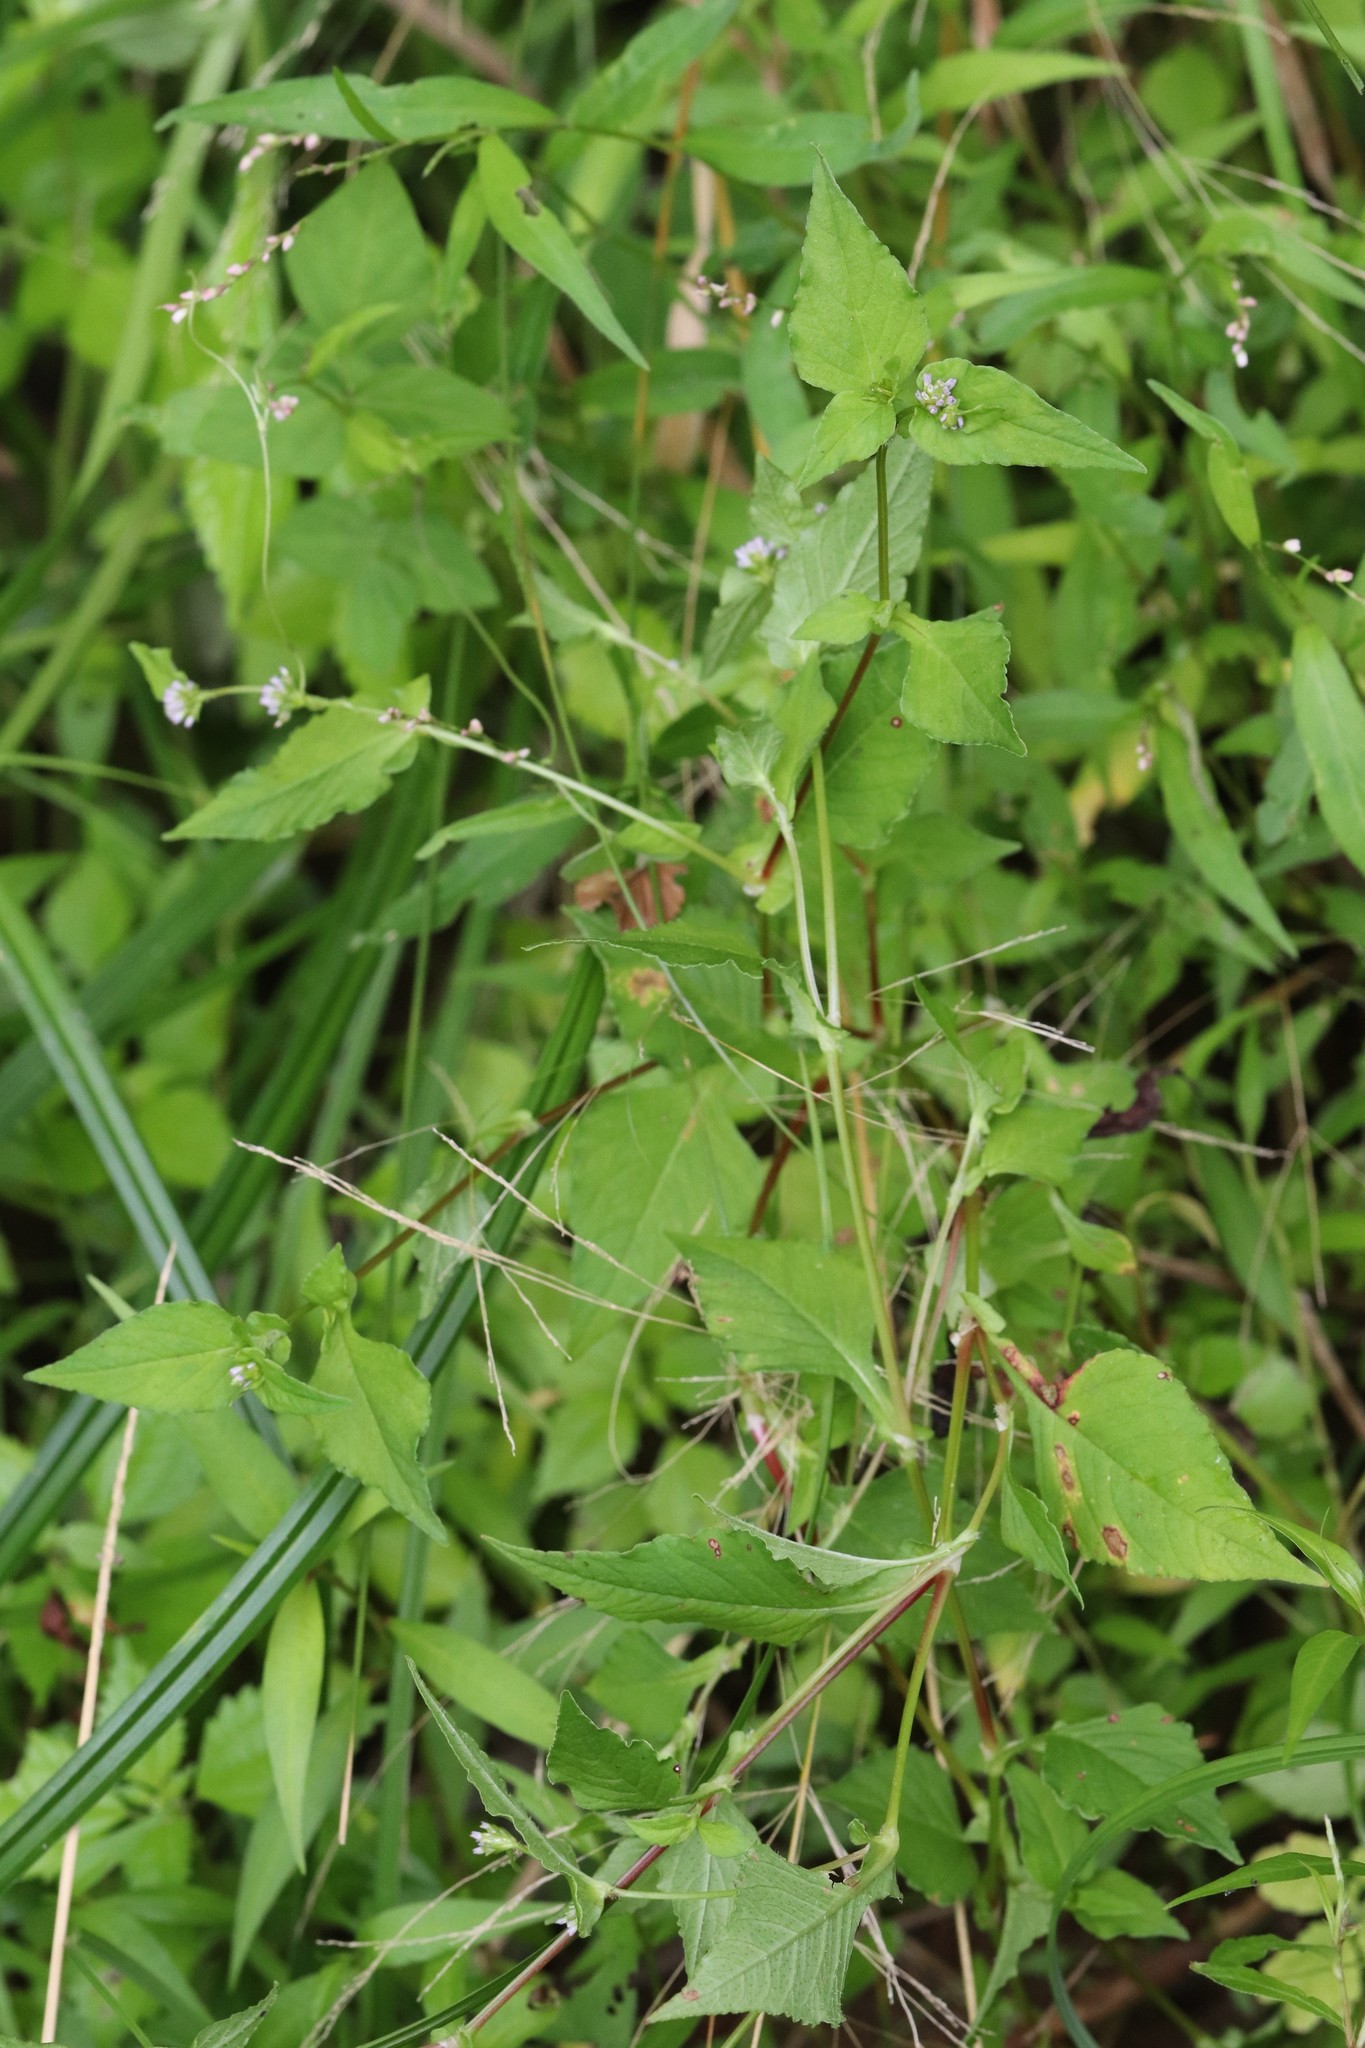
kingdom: Plantae
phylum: Tracheophyta
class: Magnoliopsida
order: Caryophyllales
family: Polygonaceae
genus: Persicaria
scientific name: Persicaria nepalensis
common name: Nepal persicaria
